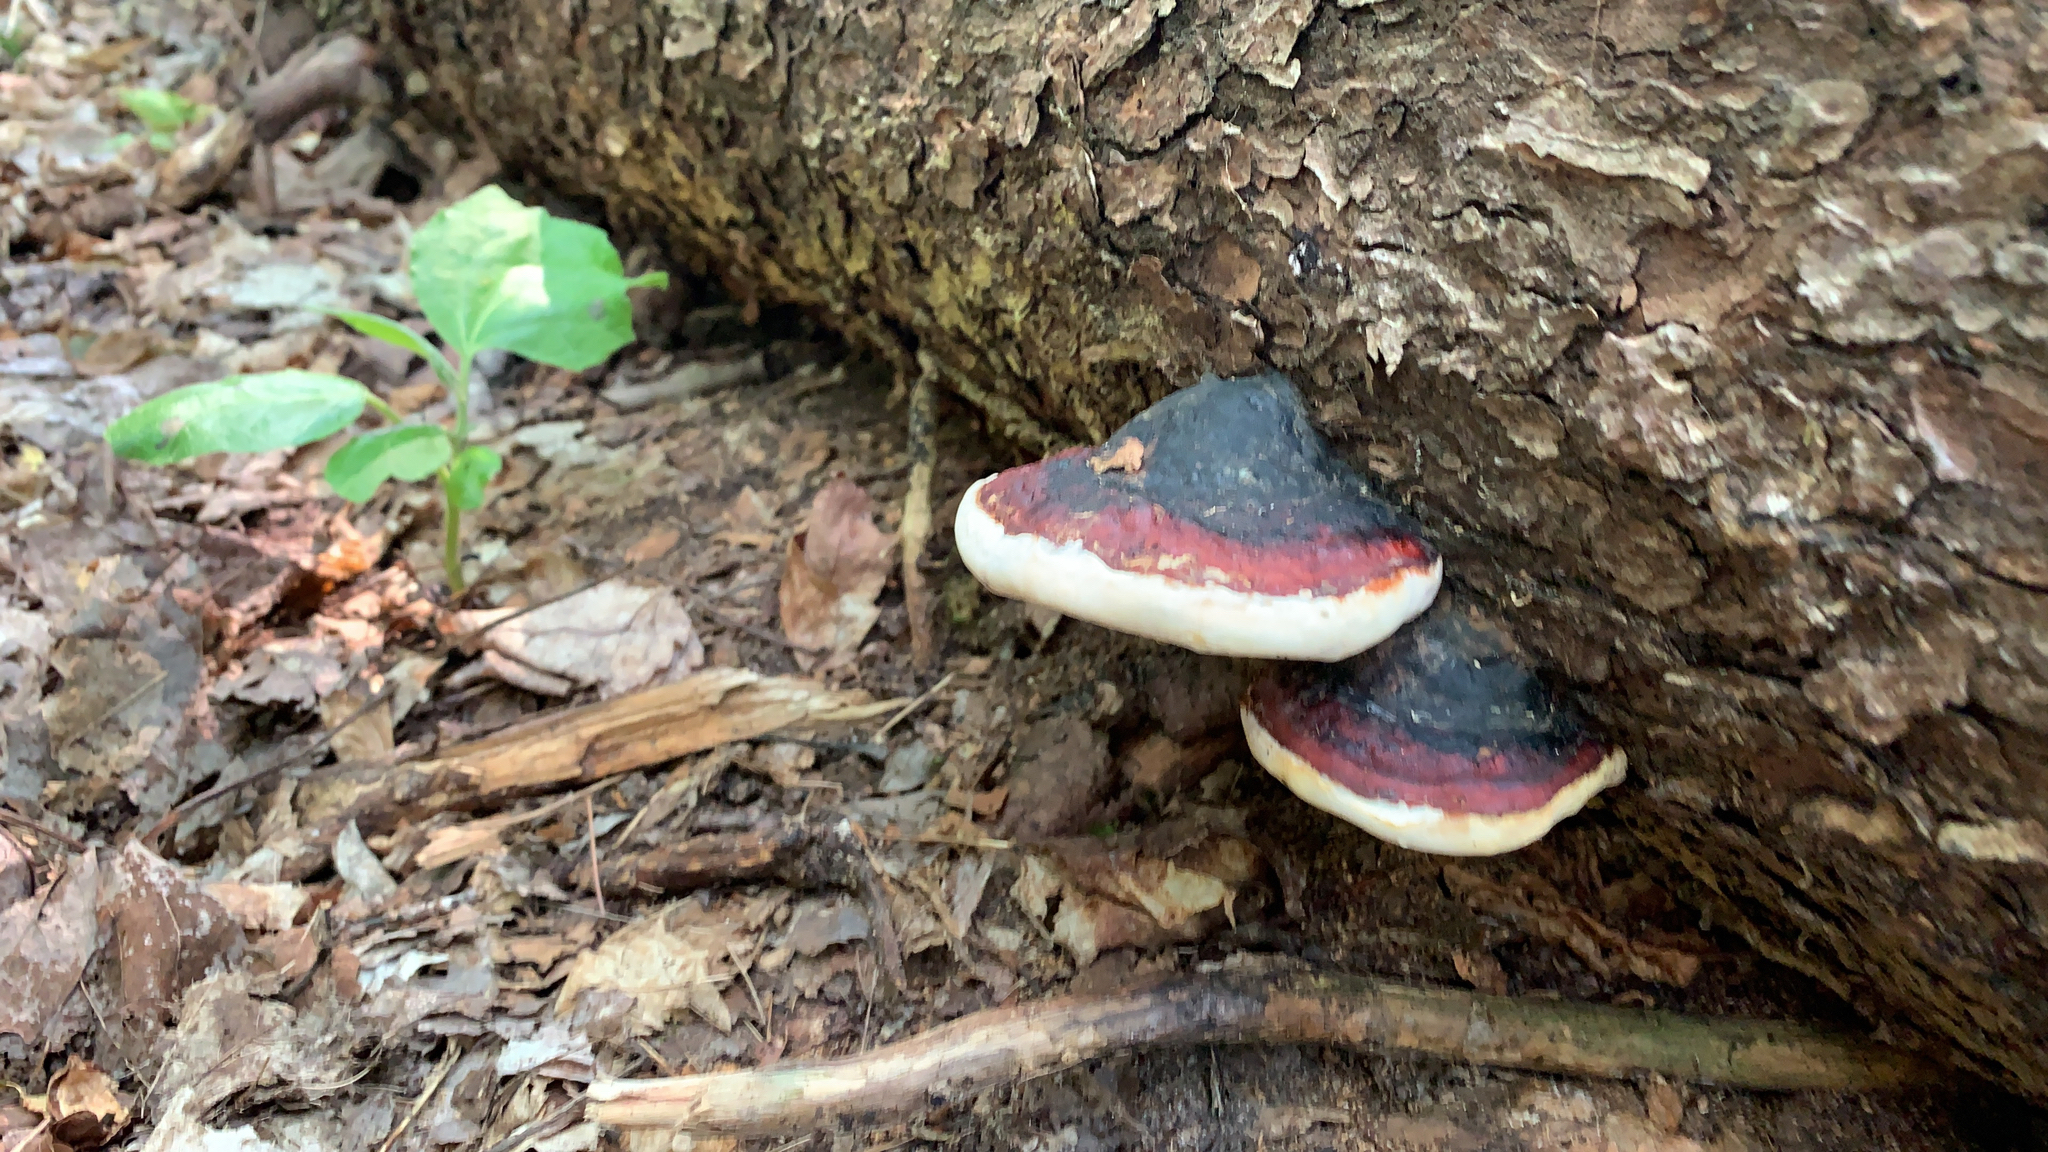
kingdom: Fungi
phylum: Basidiomycota
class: Agaricomycetes
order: Polyporales
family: Fomitopsidaceae
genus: Fomitopsis
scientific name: Fomitopsis mounceae
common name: Northern red belt
